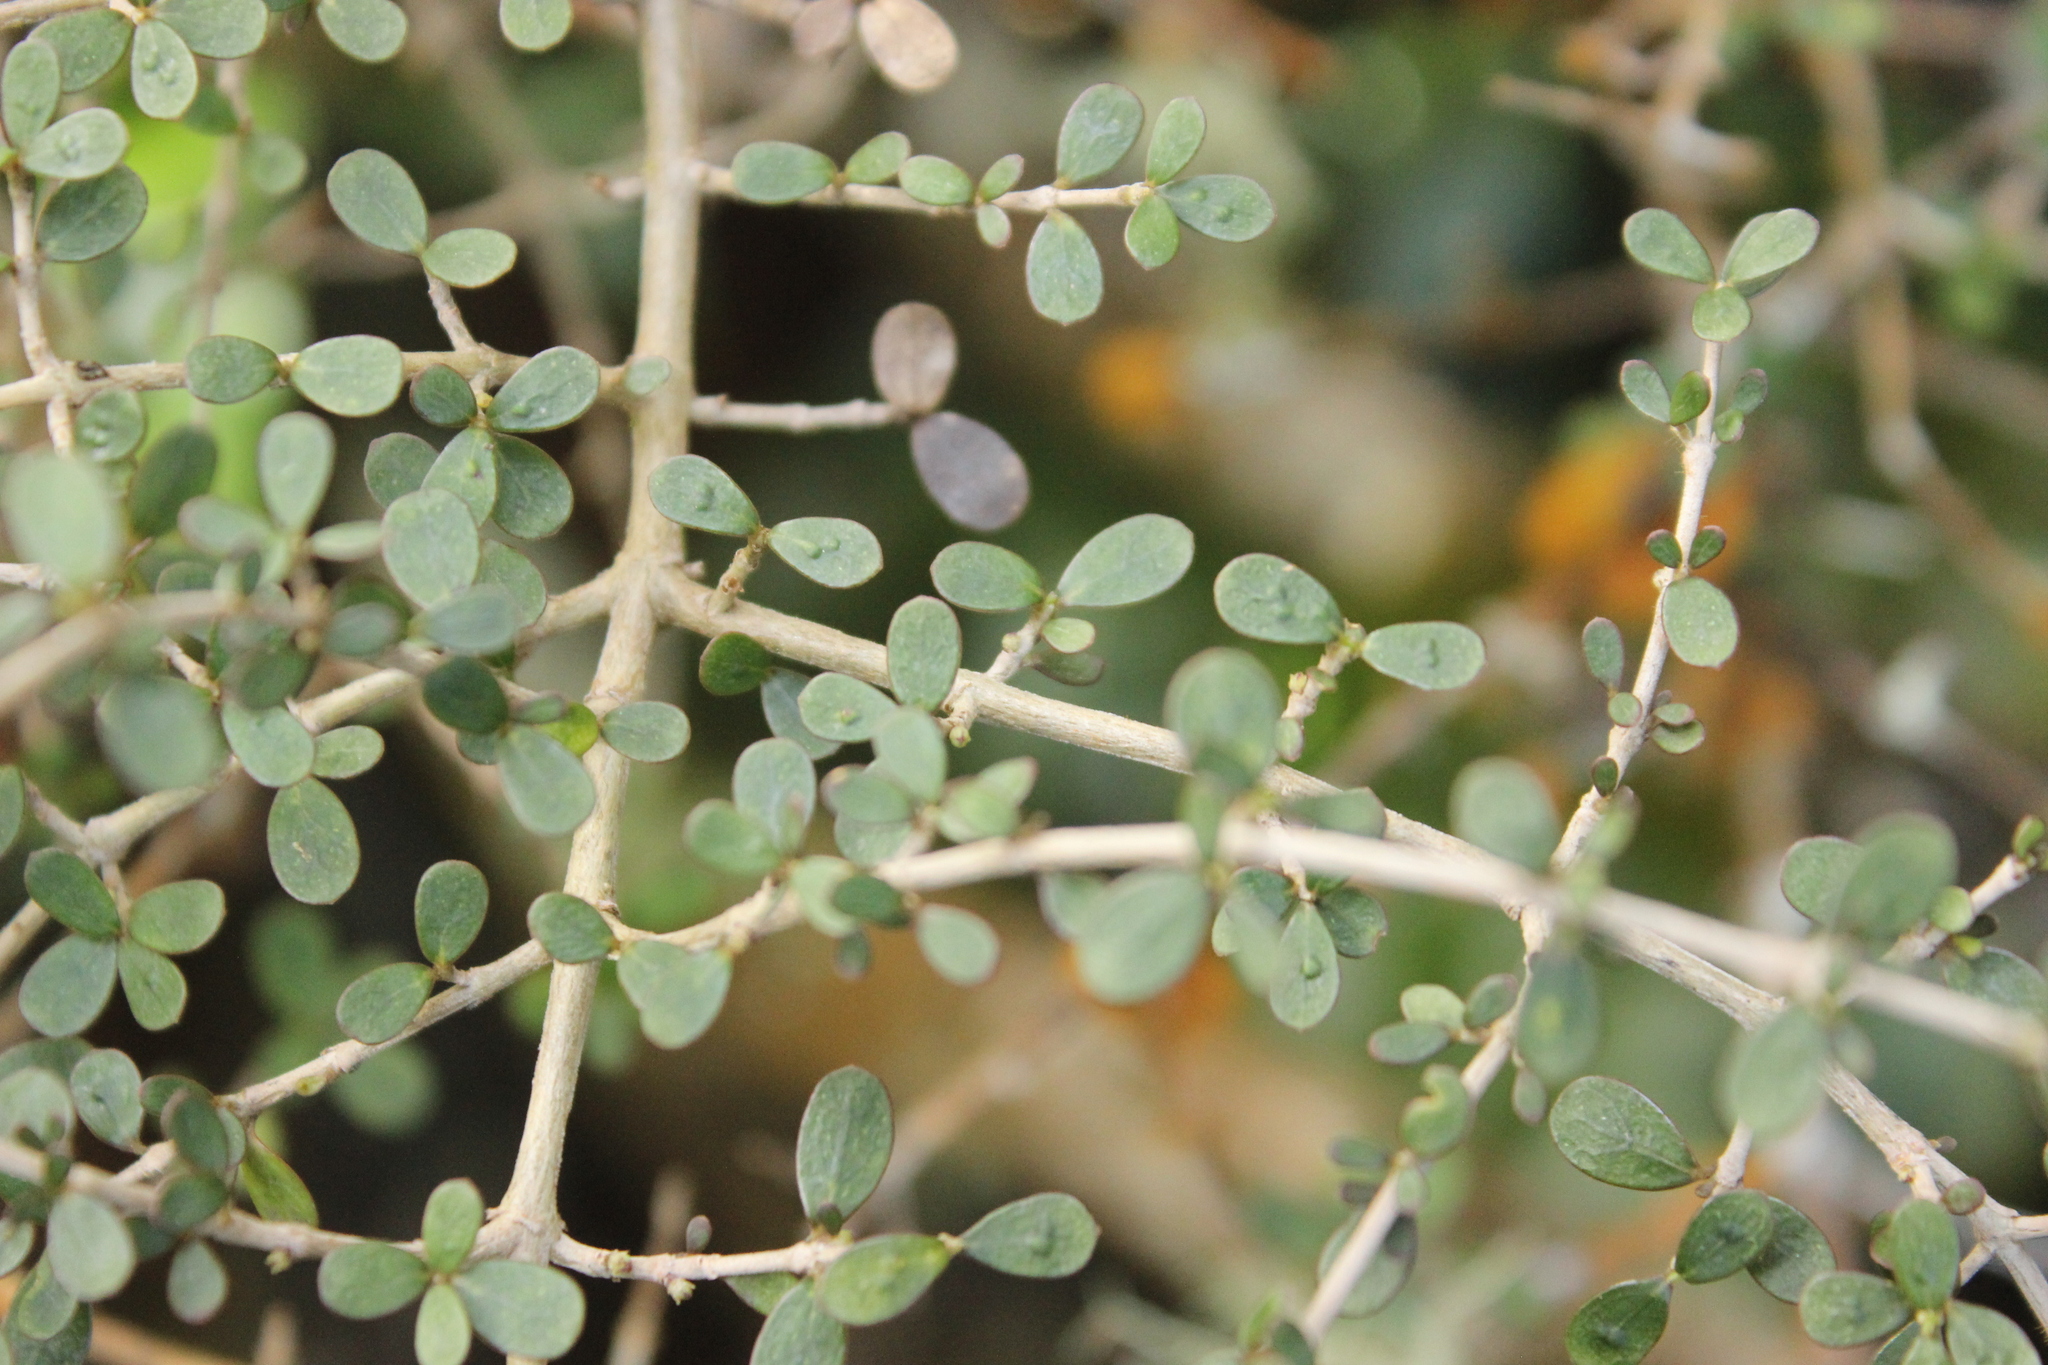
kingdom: Plantae
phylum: Tracheophyta
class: Magnoliopsida
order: Gentianales
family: Rubiaceae
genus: Coprosma
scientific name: Coprosma dumosa
